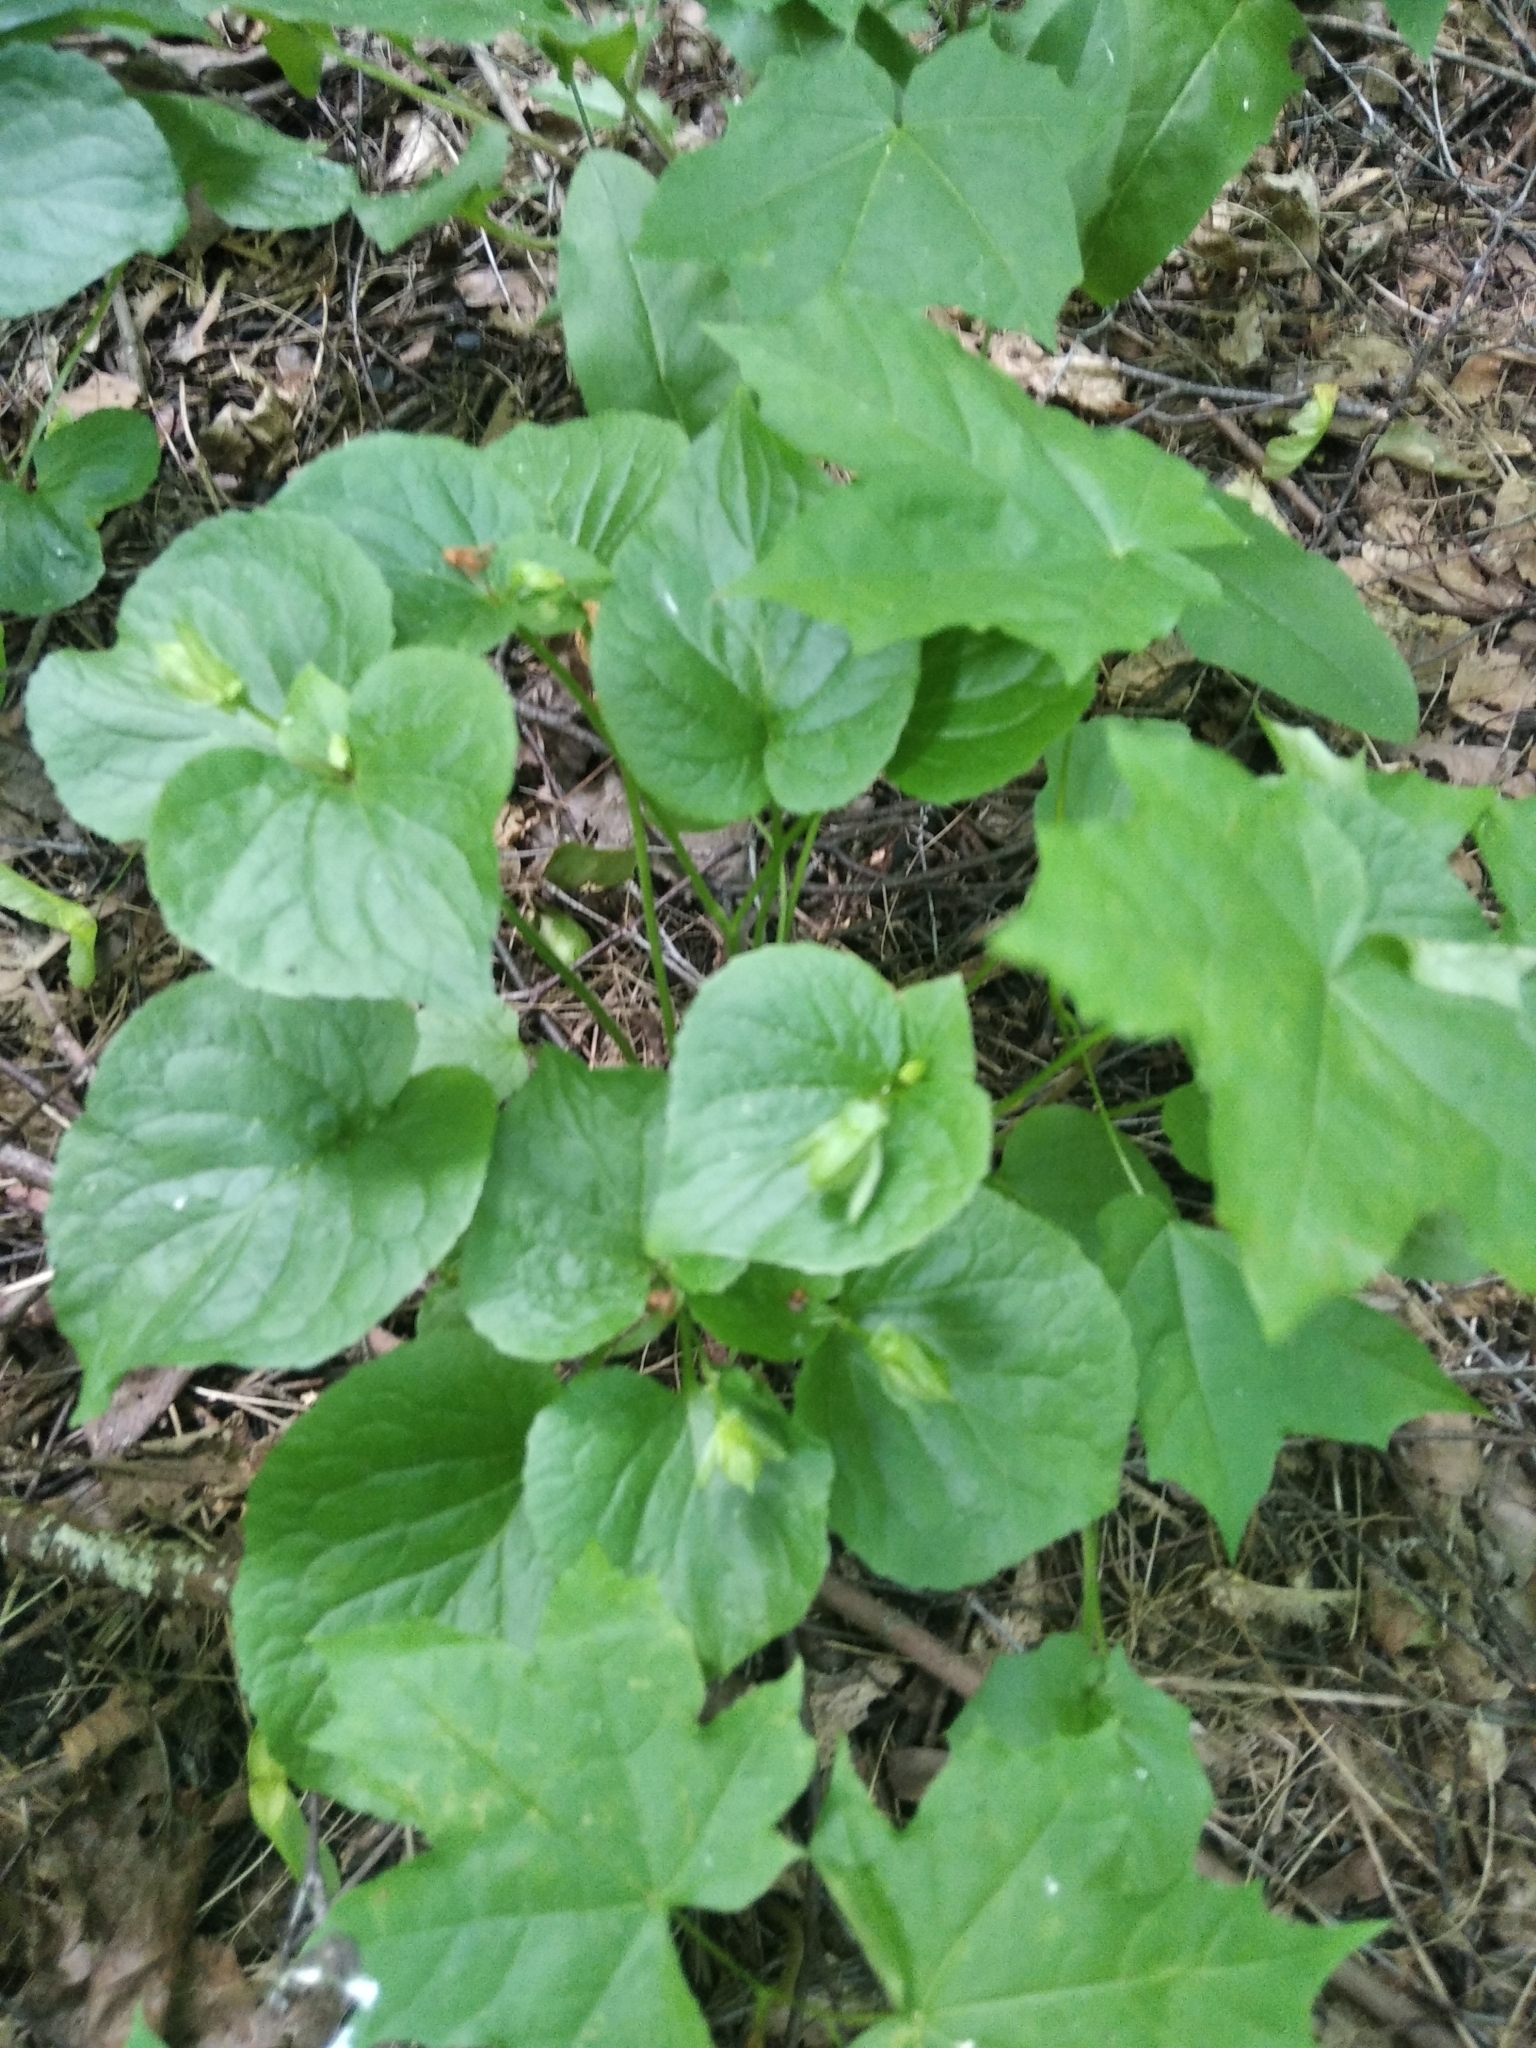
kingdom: Plantae
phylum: Tracheophyta
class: Magnoliopsida
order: Malpighiales
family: Violaceae
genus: Viola
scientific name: Viola mirabilis
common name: Wonder violet
